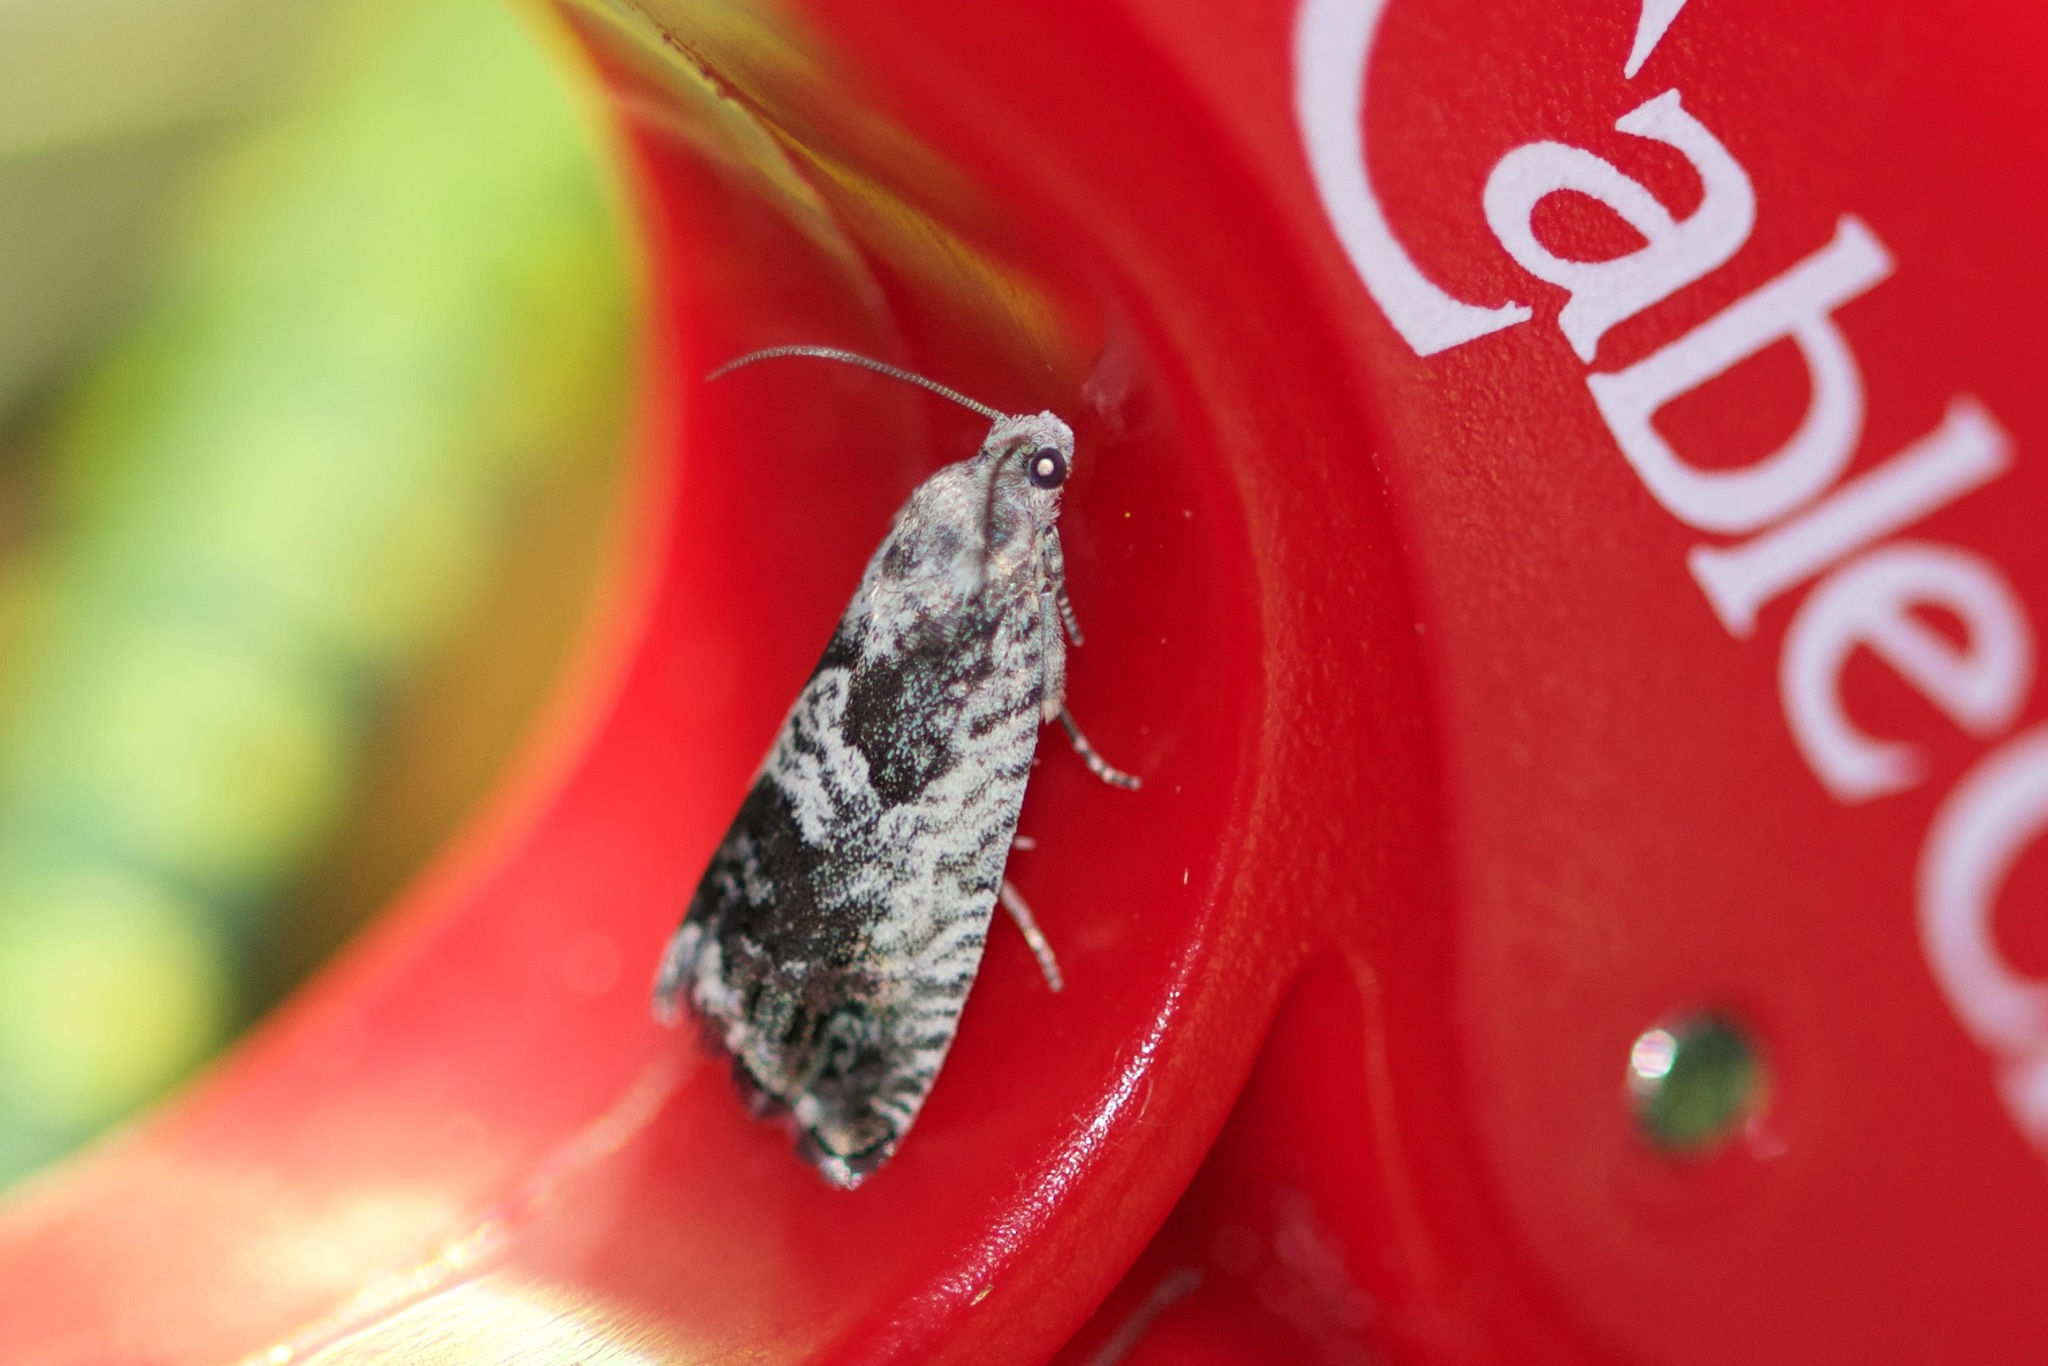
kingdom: Animalia
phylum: Arthropoda
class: Insecta
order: Lepidoptera
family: Tortricidae
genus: Cydia
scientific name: Cydia populana
